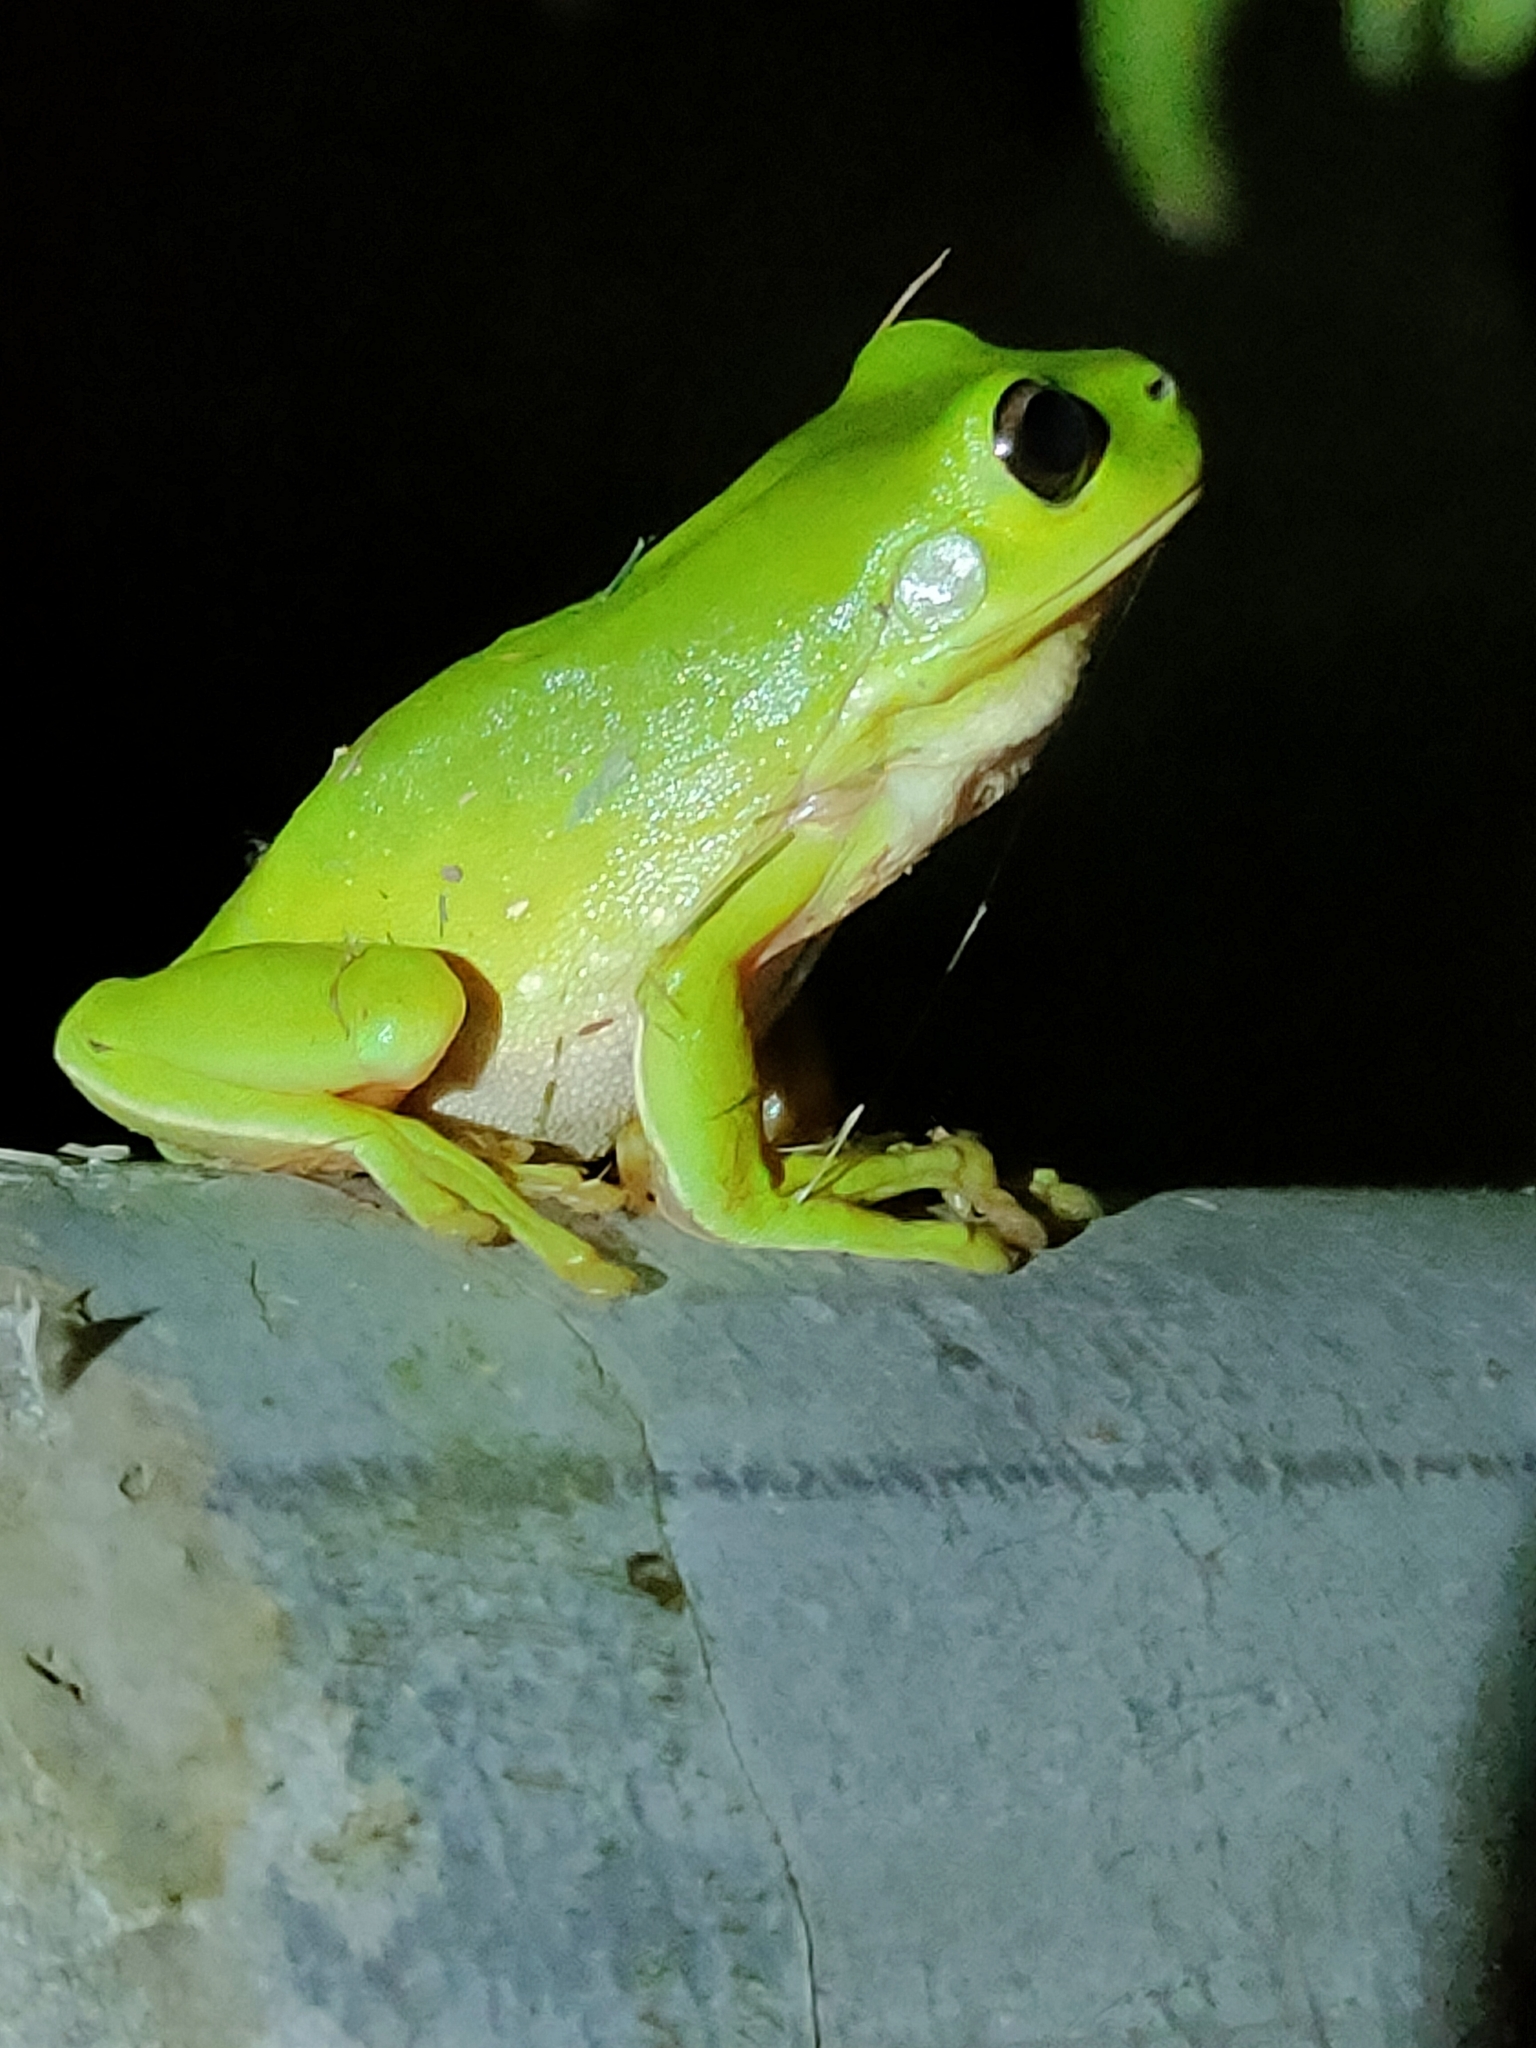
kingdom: Animalia
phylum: Chordata
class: Amphibia
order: Anura
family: Pelodryadidae
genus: Ranoidea
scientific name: Ranoidea caerulea
